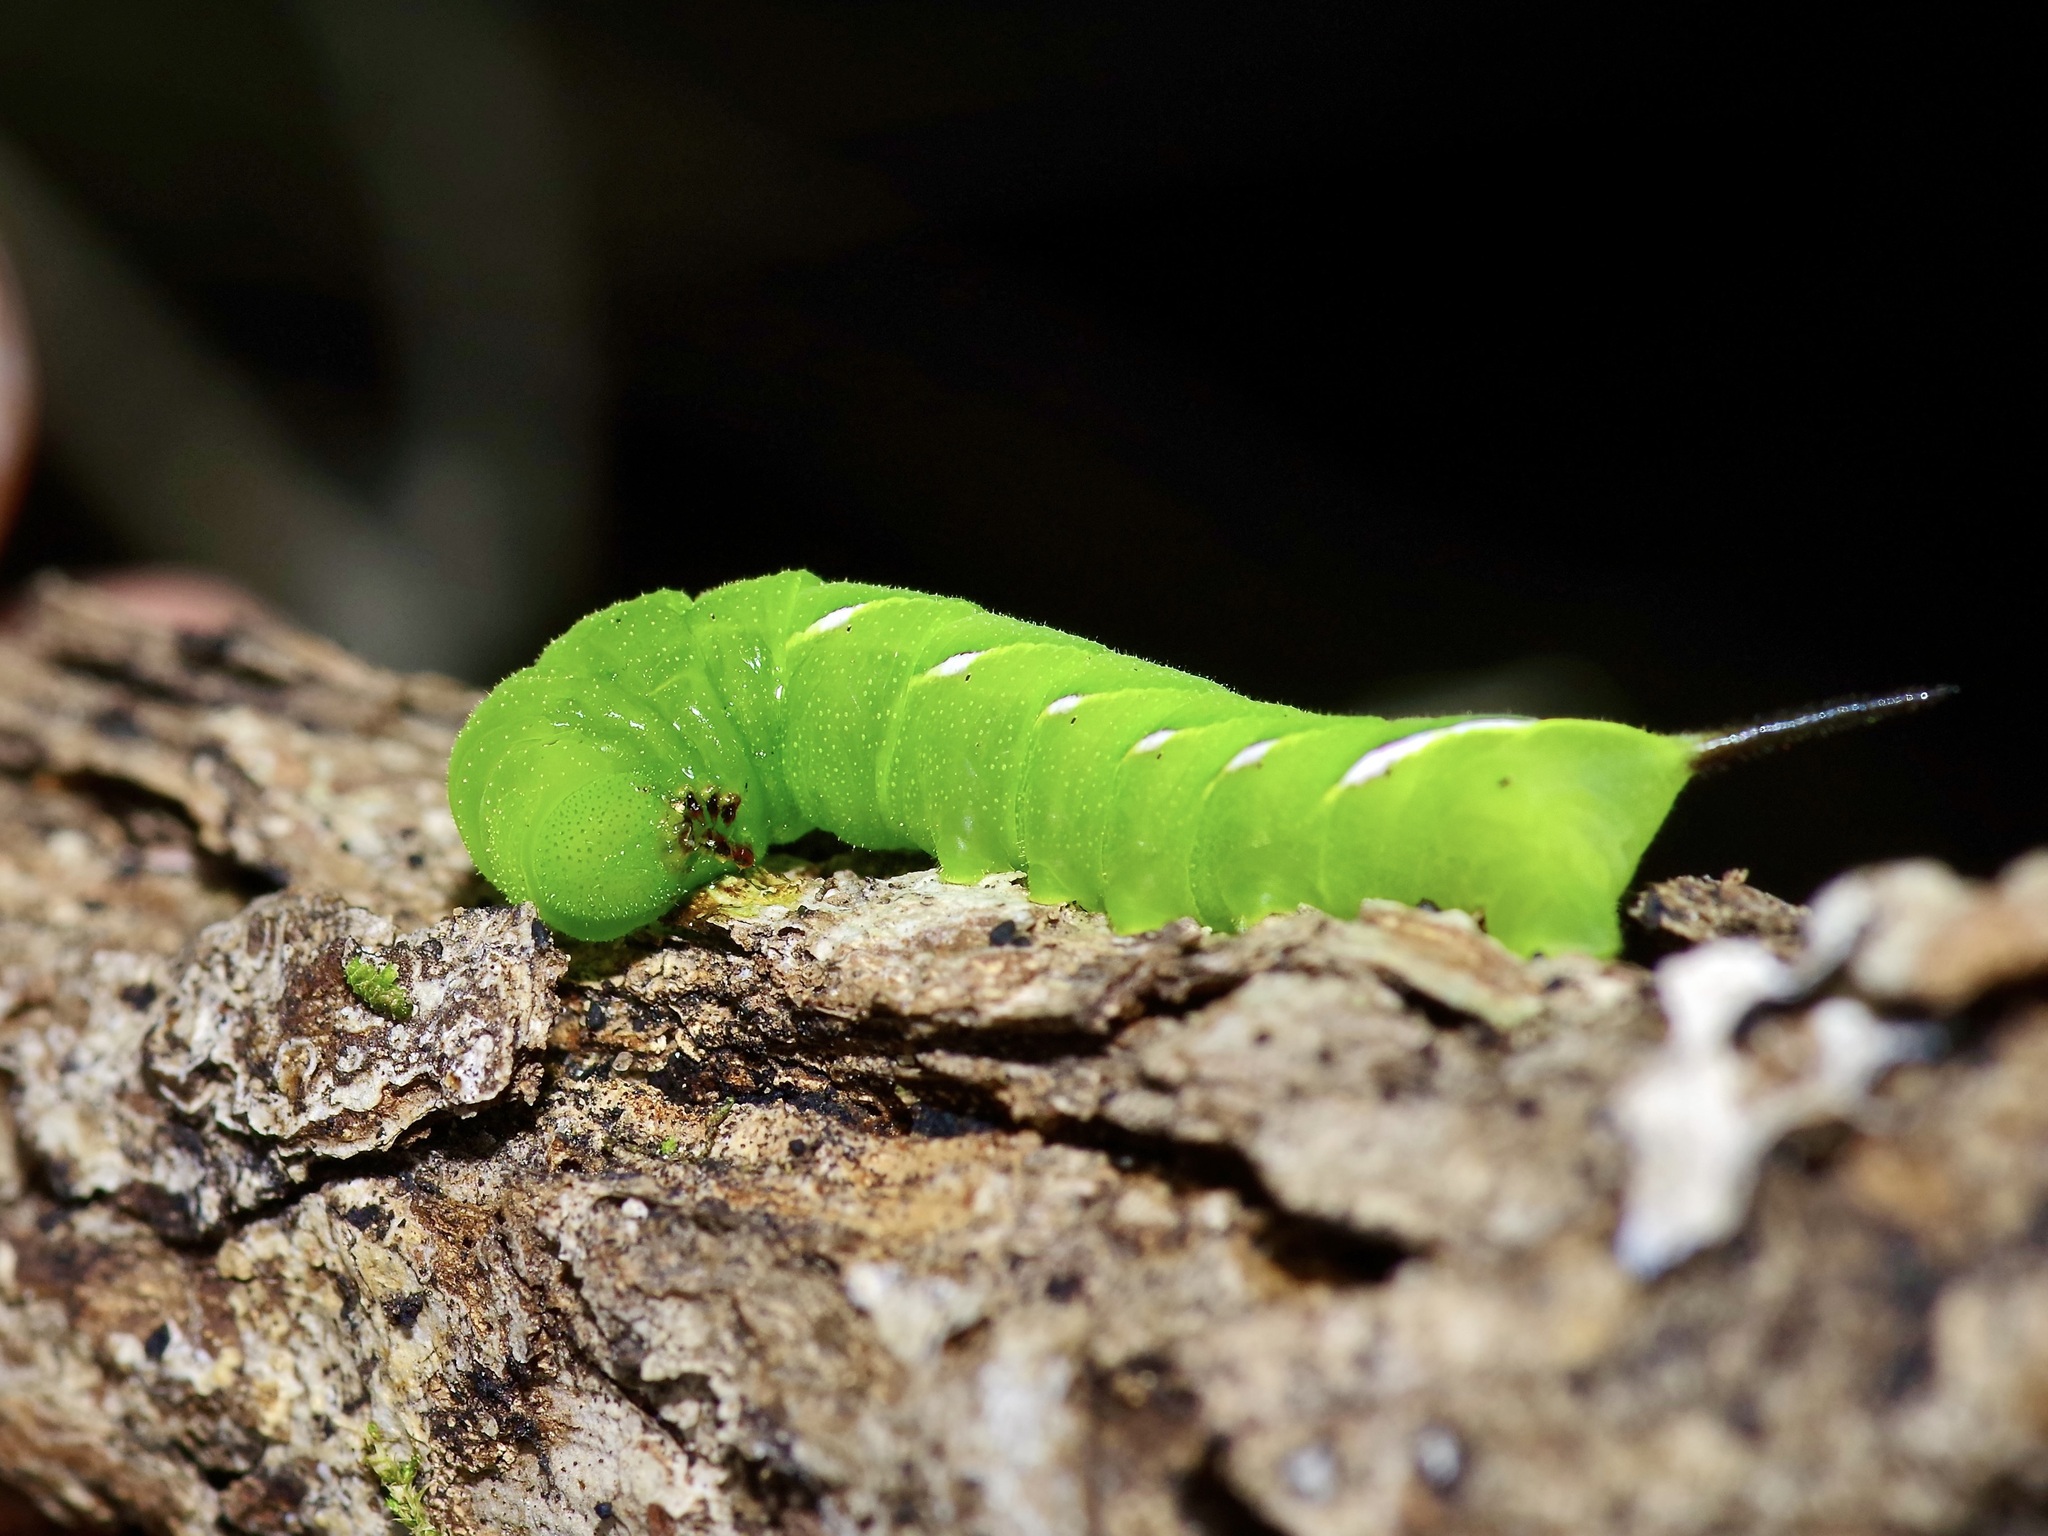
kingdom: Animalia
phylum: Arthropoda
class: Insecta
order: Lepidoptera
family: Sphingidae
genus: Dolba
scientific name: Dolba hyloeus
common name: Pawpaw sphinx
